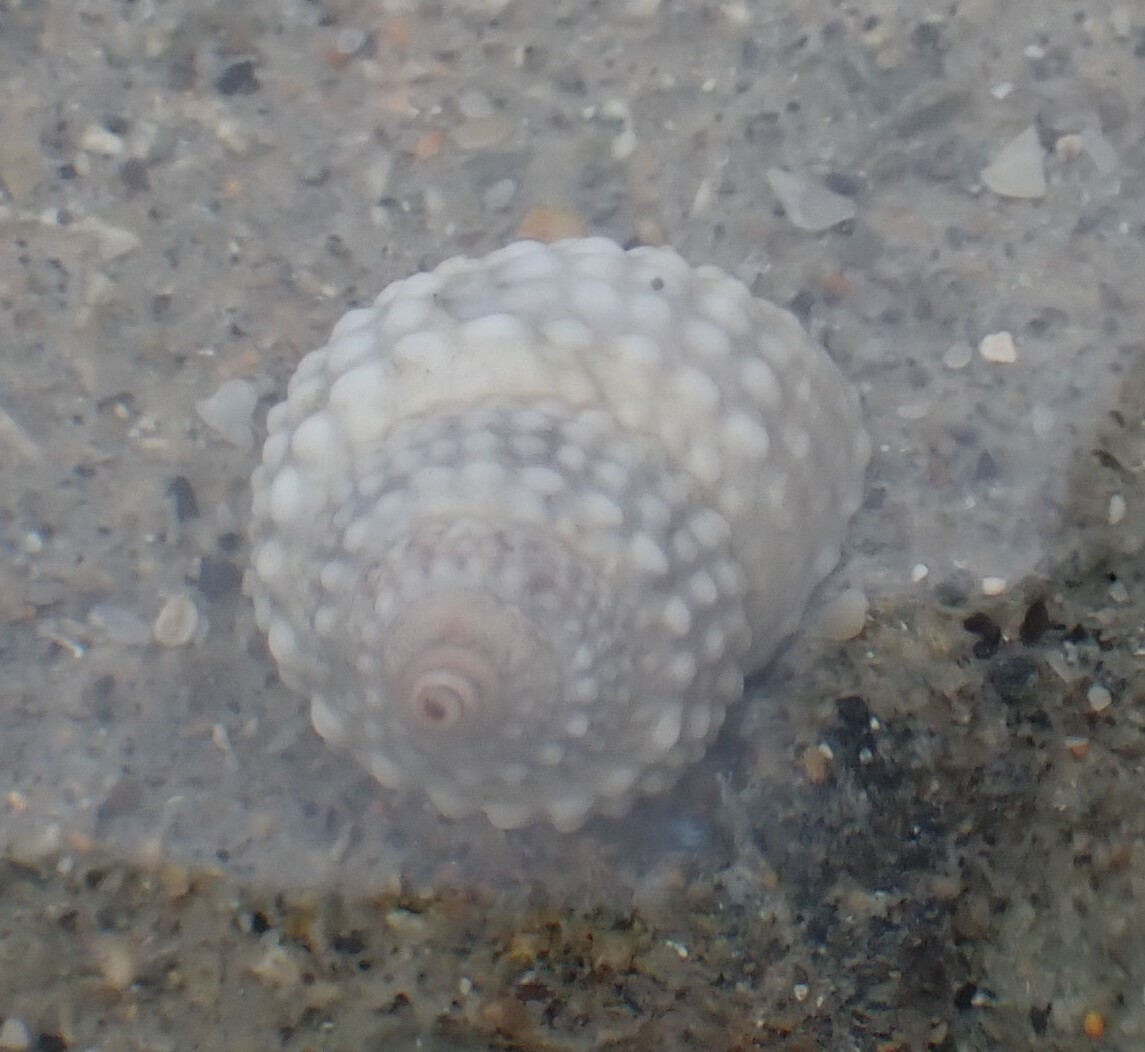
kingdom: Animalia
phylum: Mollusca
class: Gastropoda
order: Littorinimorpha
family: Littorinidae
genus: Cenchritis
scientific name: Cenchritis muricatus
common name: Beaded periwinkle
